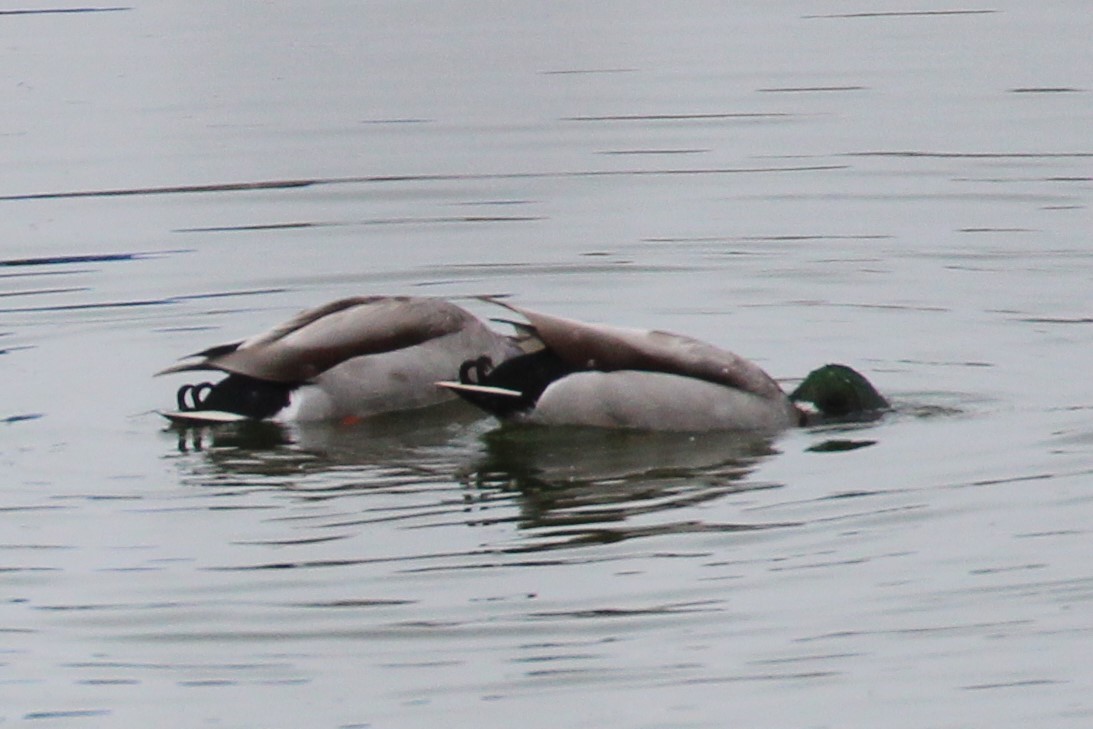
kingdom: Animalia
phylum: Chordata
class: Aves
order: Anseriformes
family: Anatidae
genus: Anas
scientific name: Anas platyrhynchos
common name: Mallard
